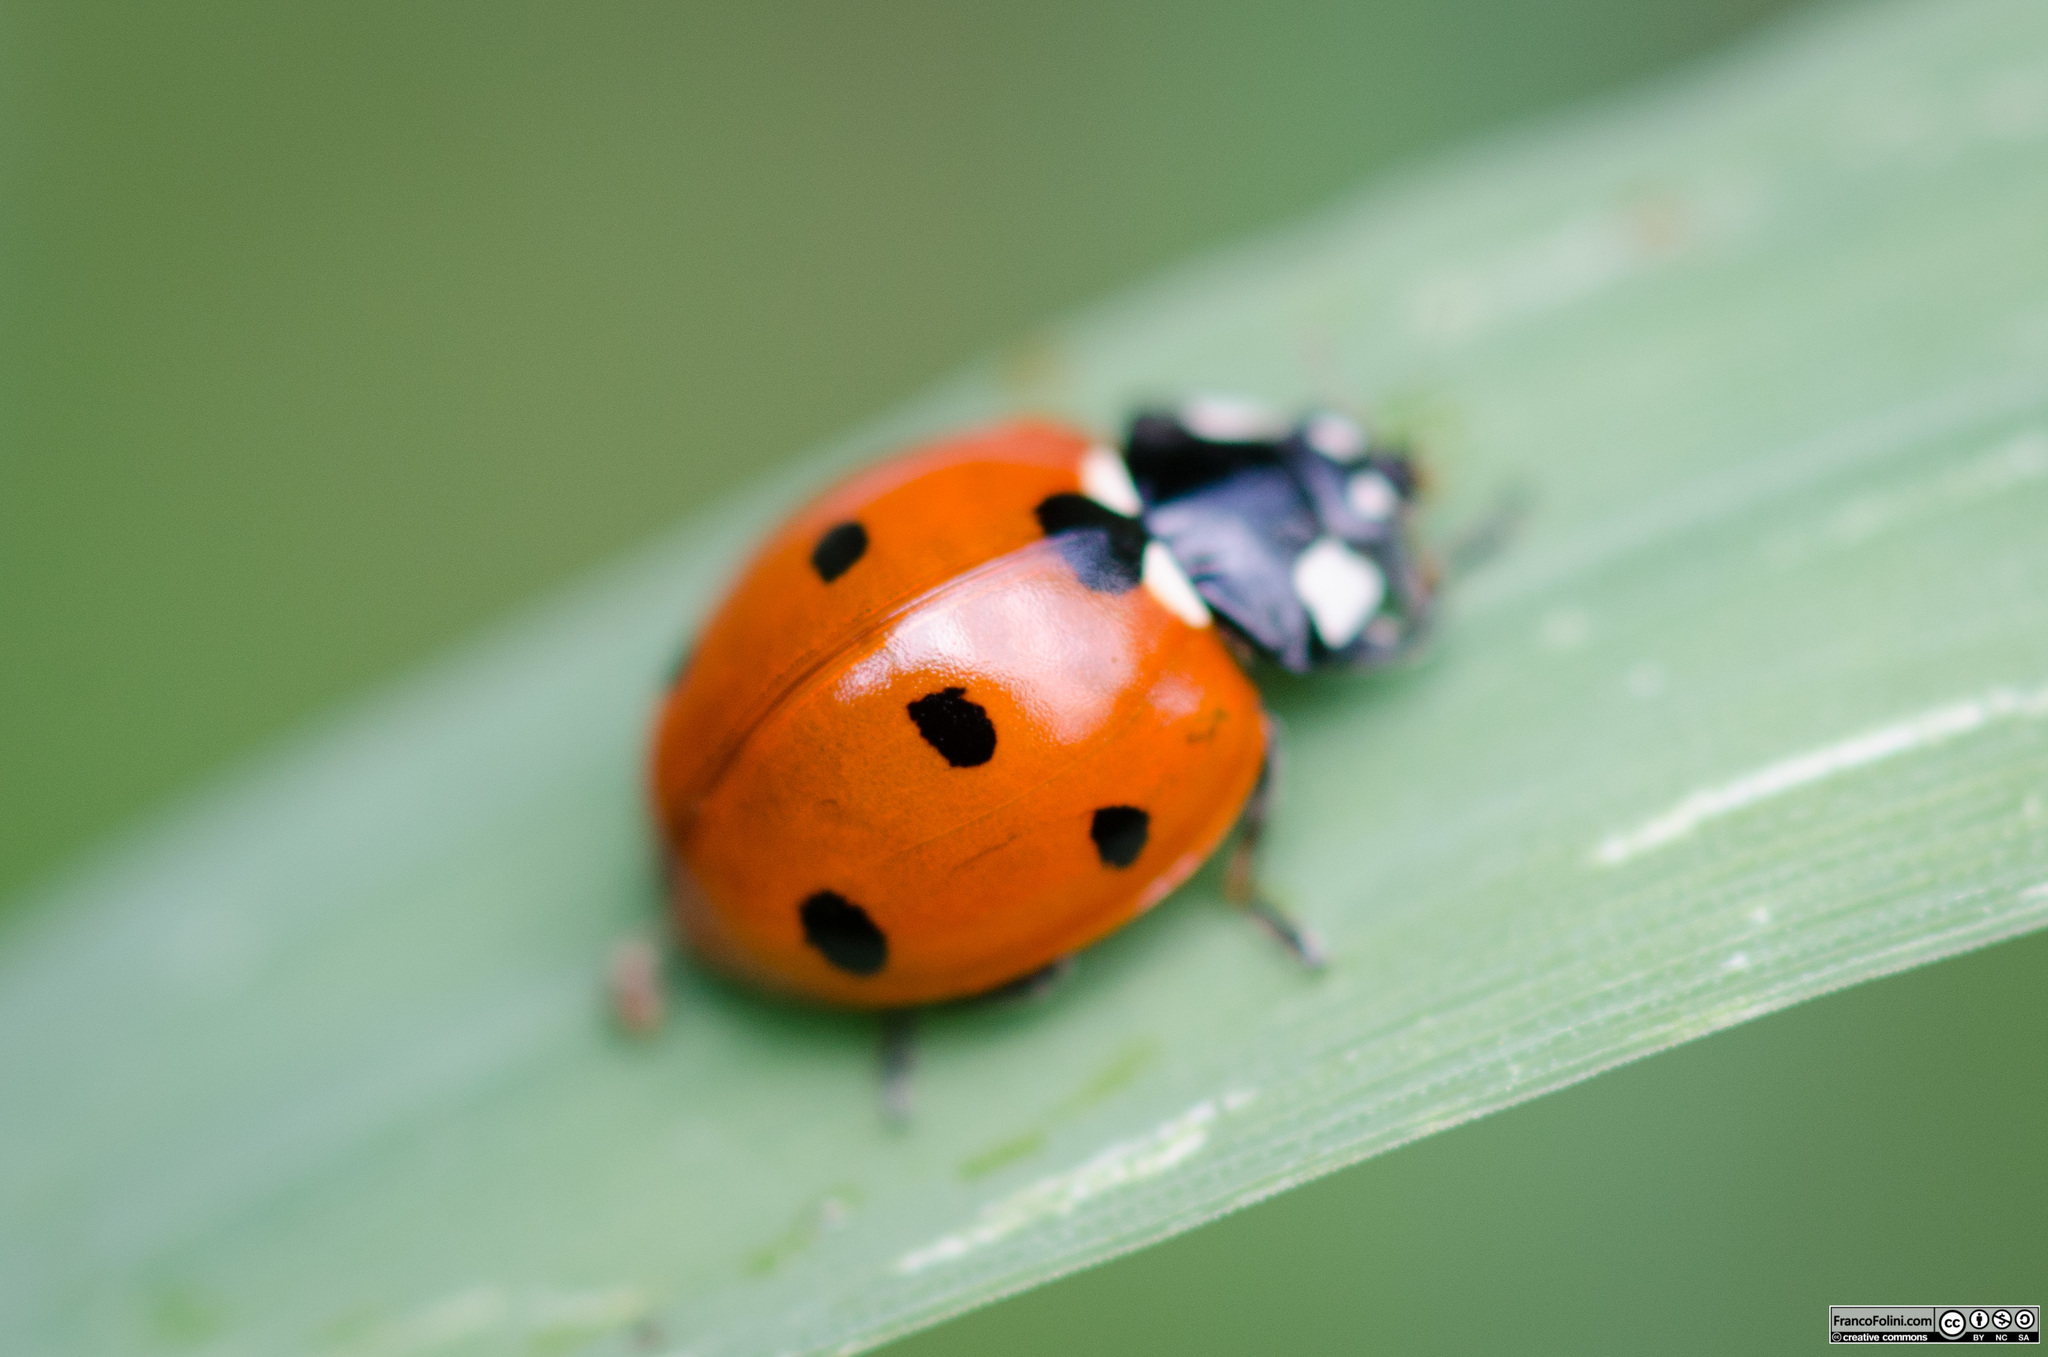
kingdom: Animalia
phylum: Arthropoda
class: Insecta
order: Coleoptera
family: Coccinellidae
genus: Coccinella
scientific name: Coccinella septempunctata
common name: Sevenspotted lady beetle
